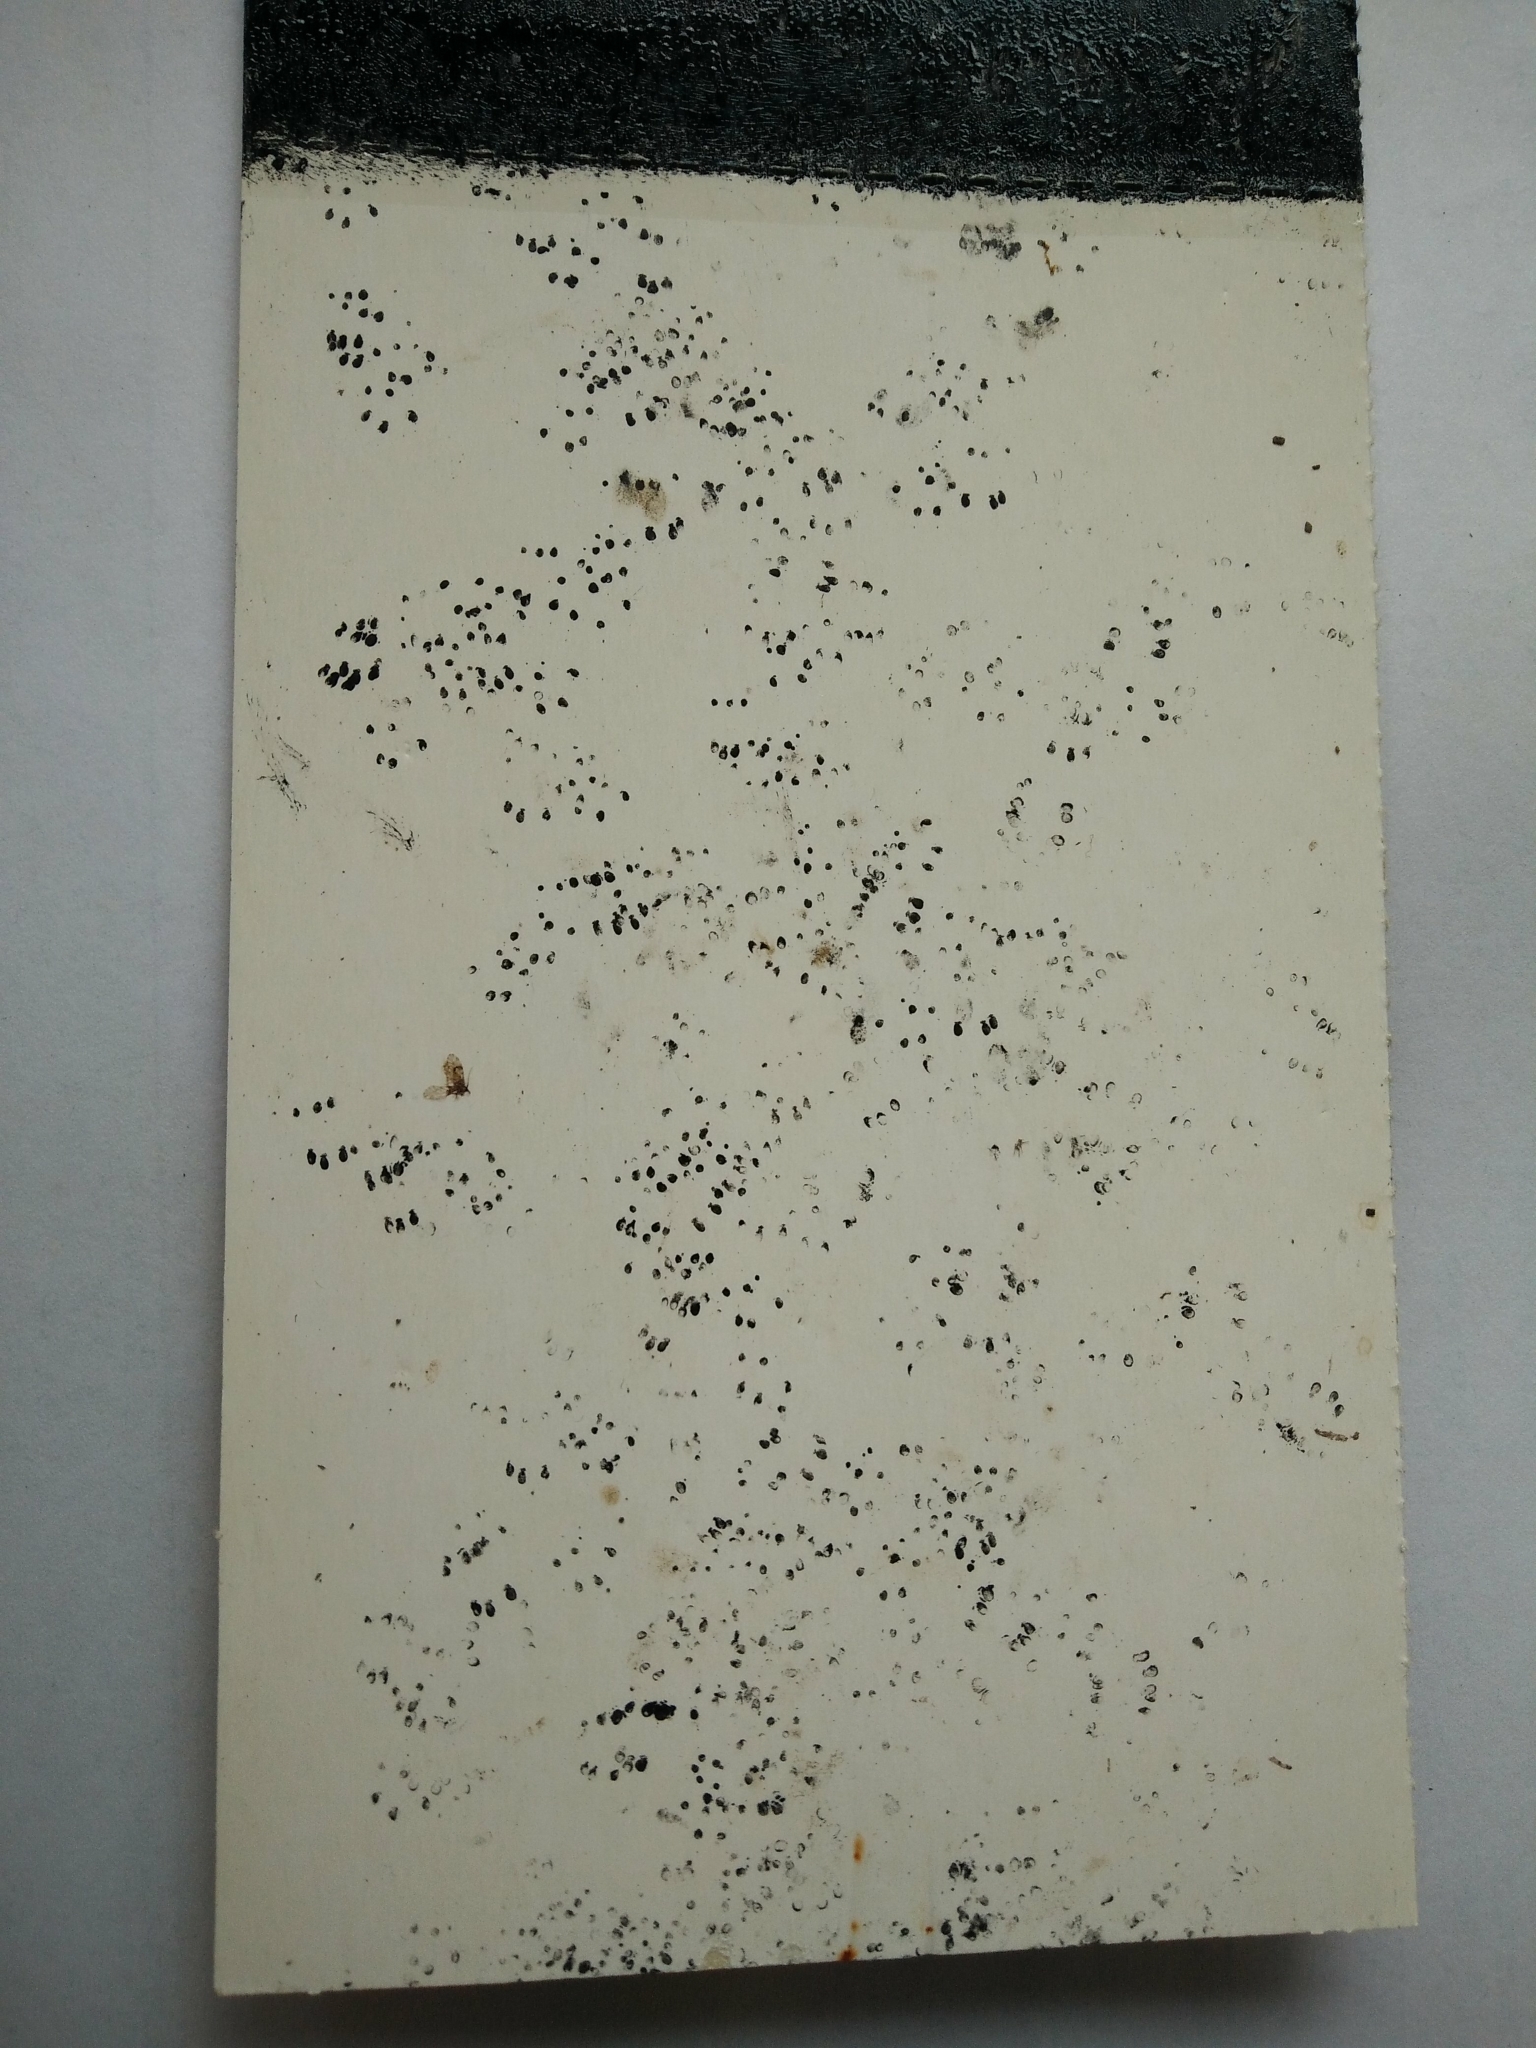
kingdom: Animalia
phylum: Chordata
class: Mammalia
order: Rodentia
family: Muridae
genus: Mus
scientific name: Mus musculus
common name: House mouse
